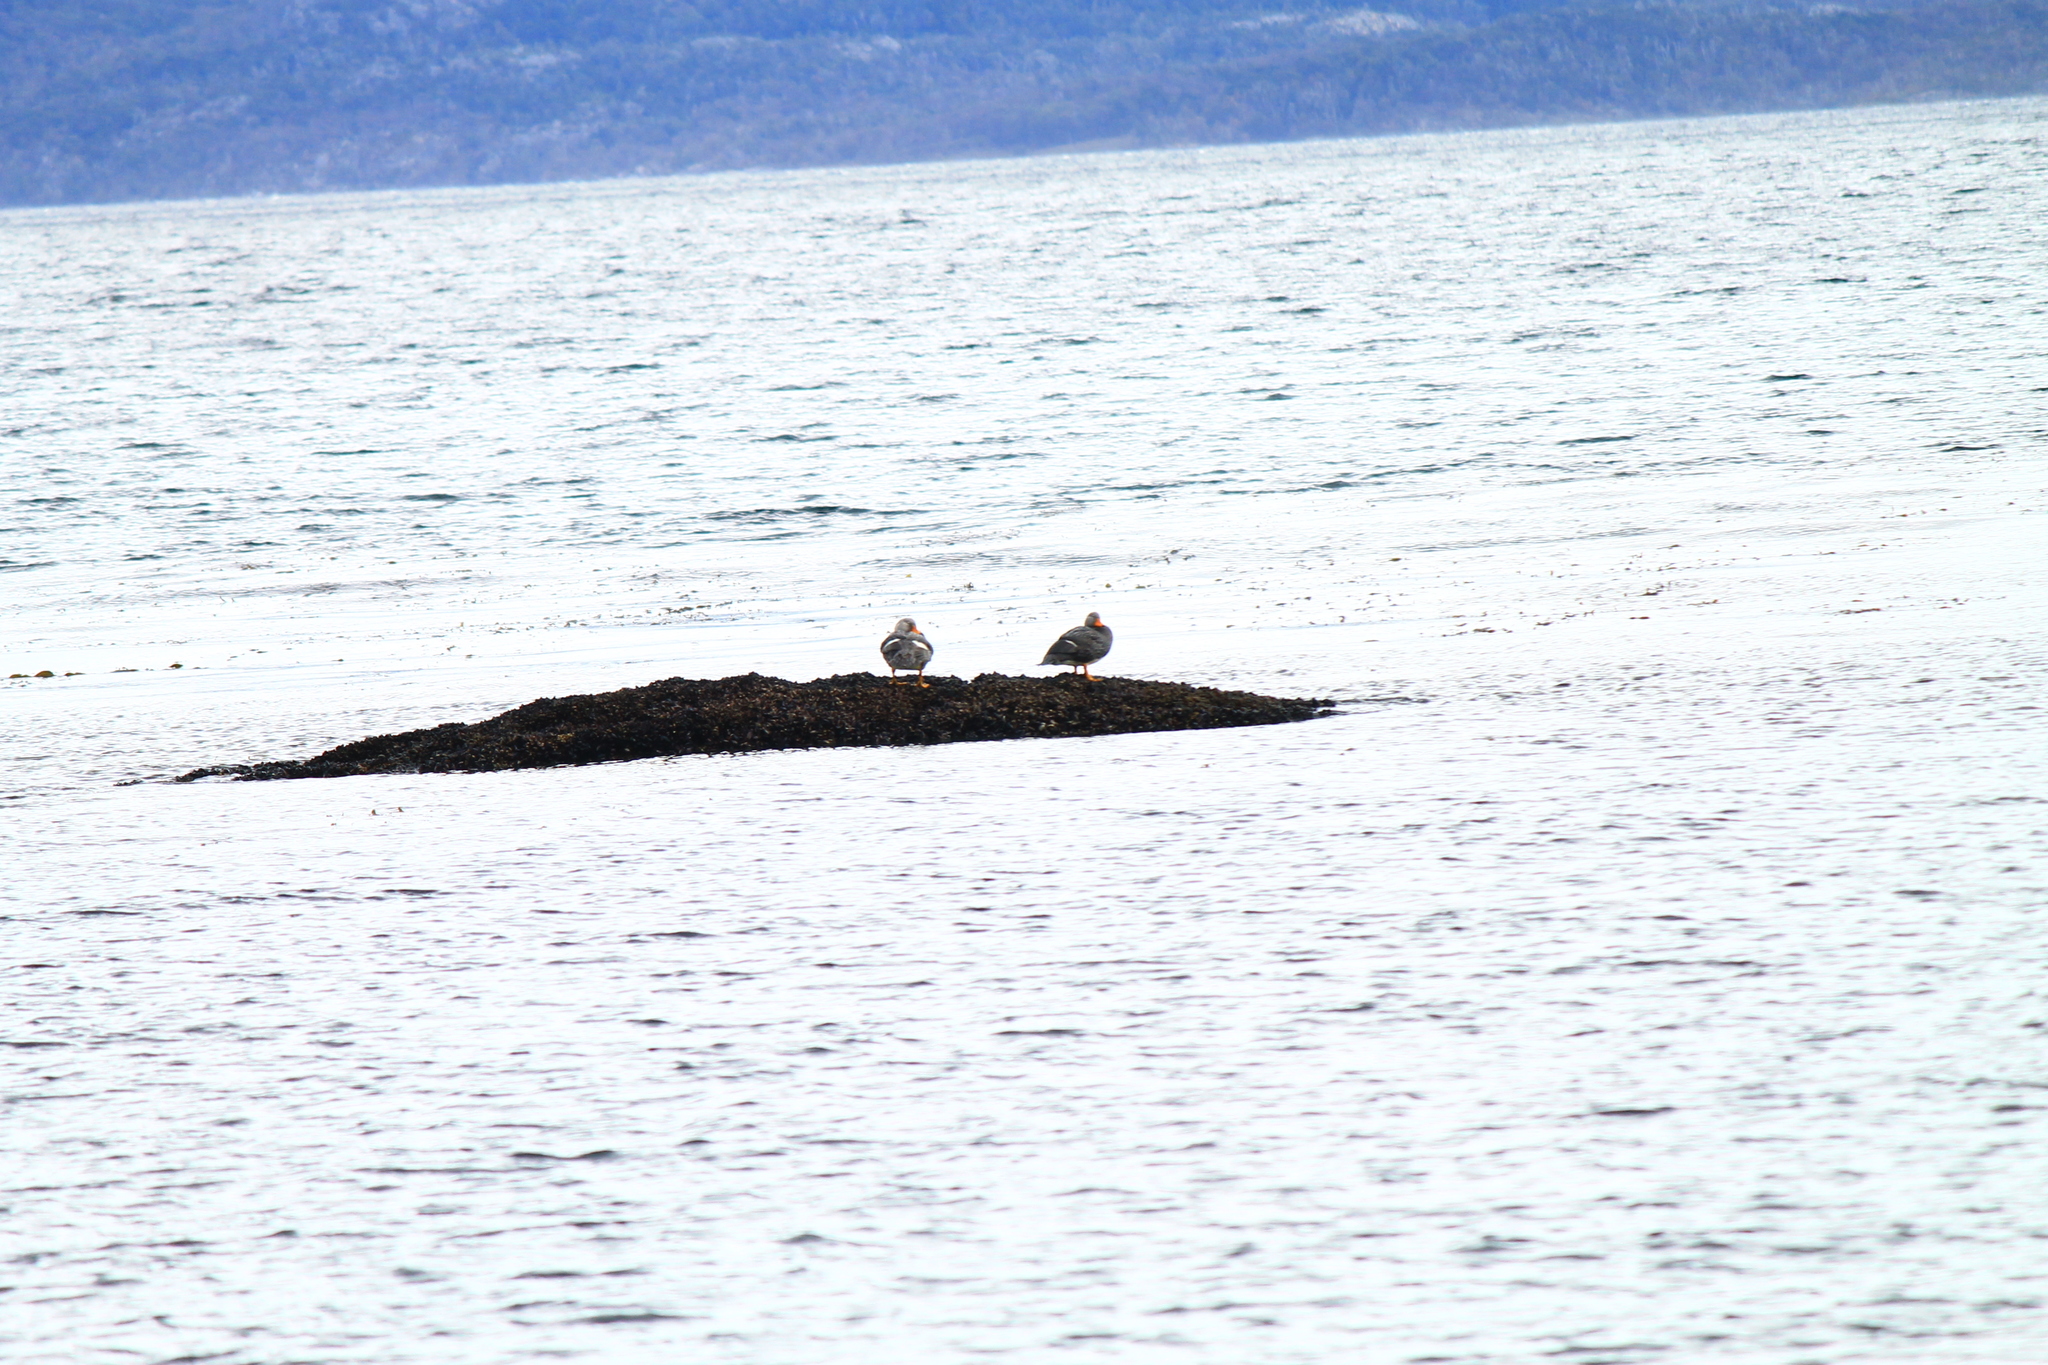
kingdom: Animalia
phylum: Chordata
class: Aves
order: Anseriformes
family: Anatidae
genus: Tachyeres
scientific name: Tachyeres pteneres
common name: Fuegian steamer duck
